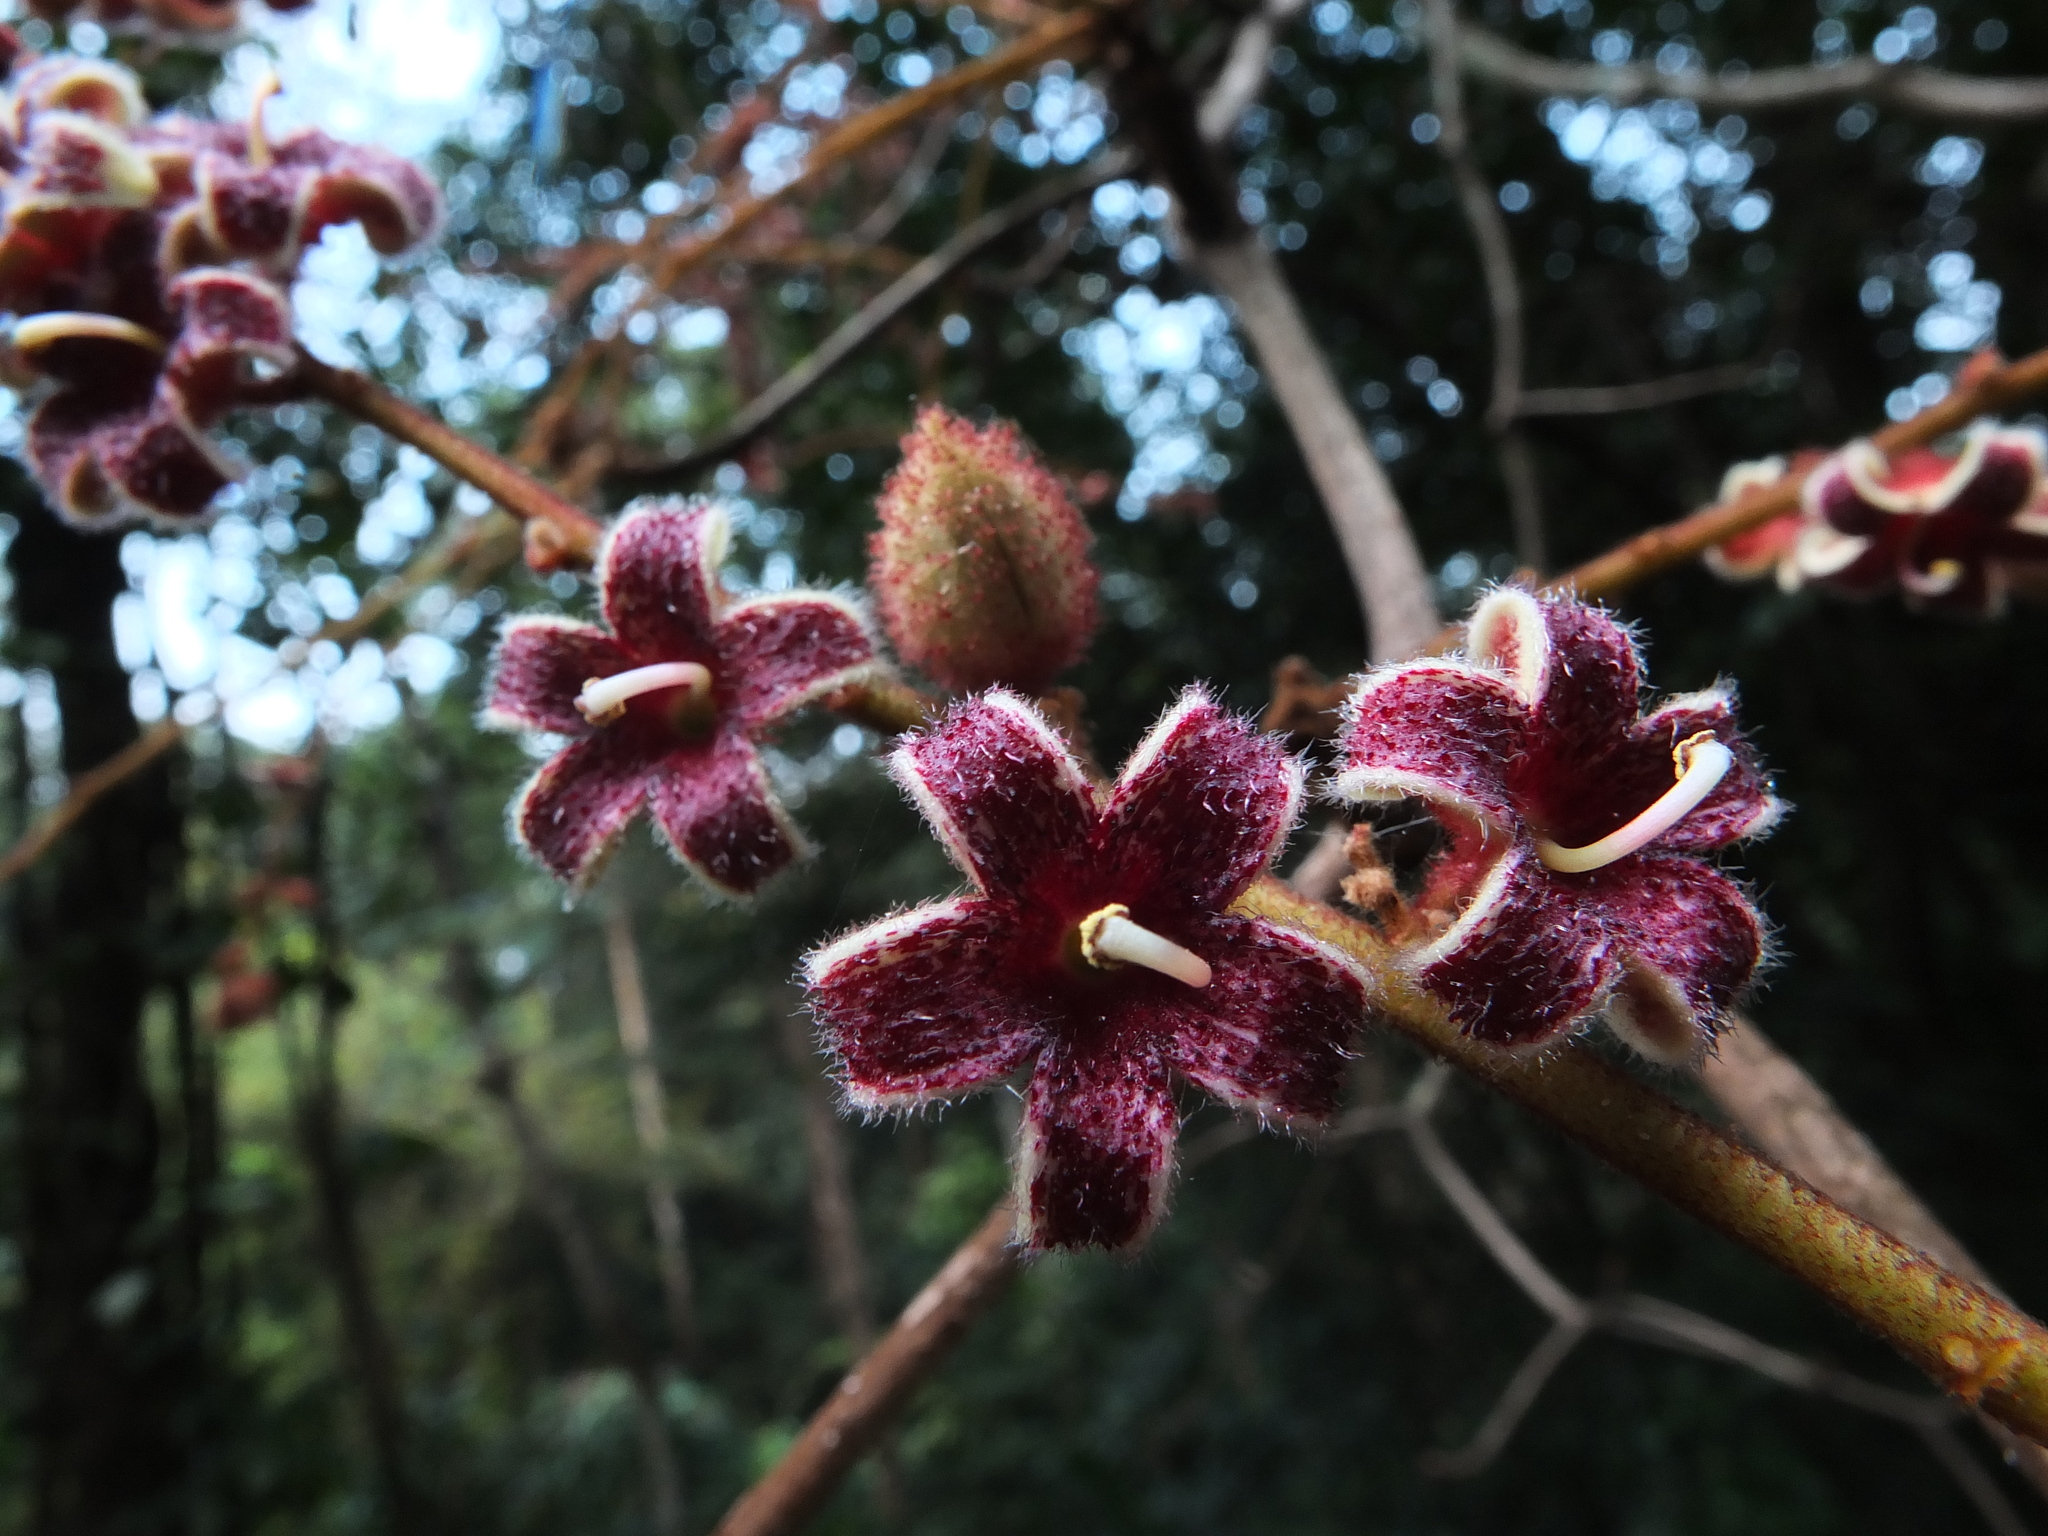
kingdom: Plantae
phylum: Tracheophyta
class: Magnoliopsida
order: Malvales
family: Malvaceae
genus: Sterculia
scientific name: Sterculia guttata
